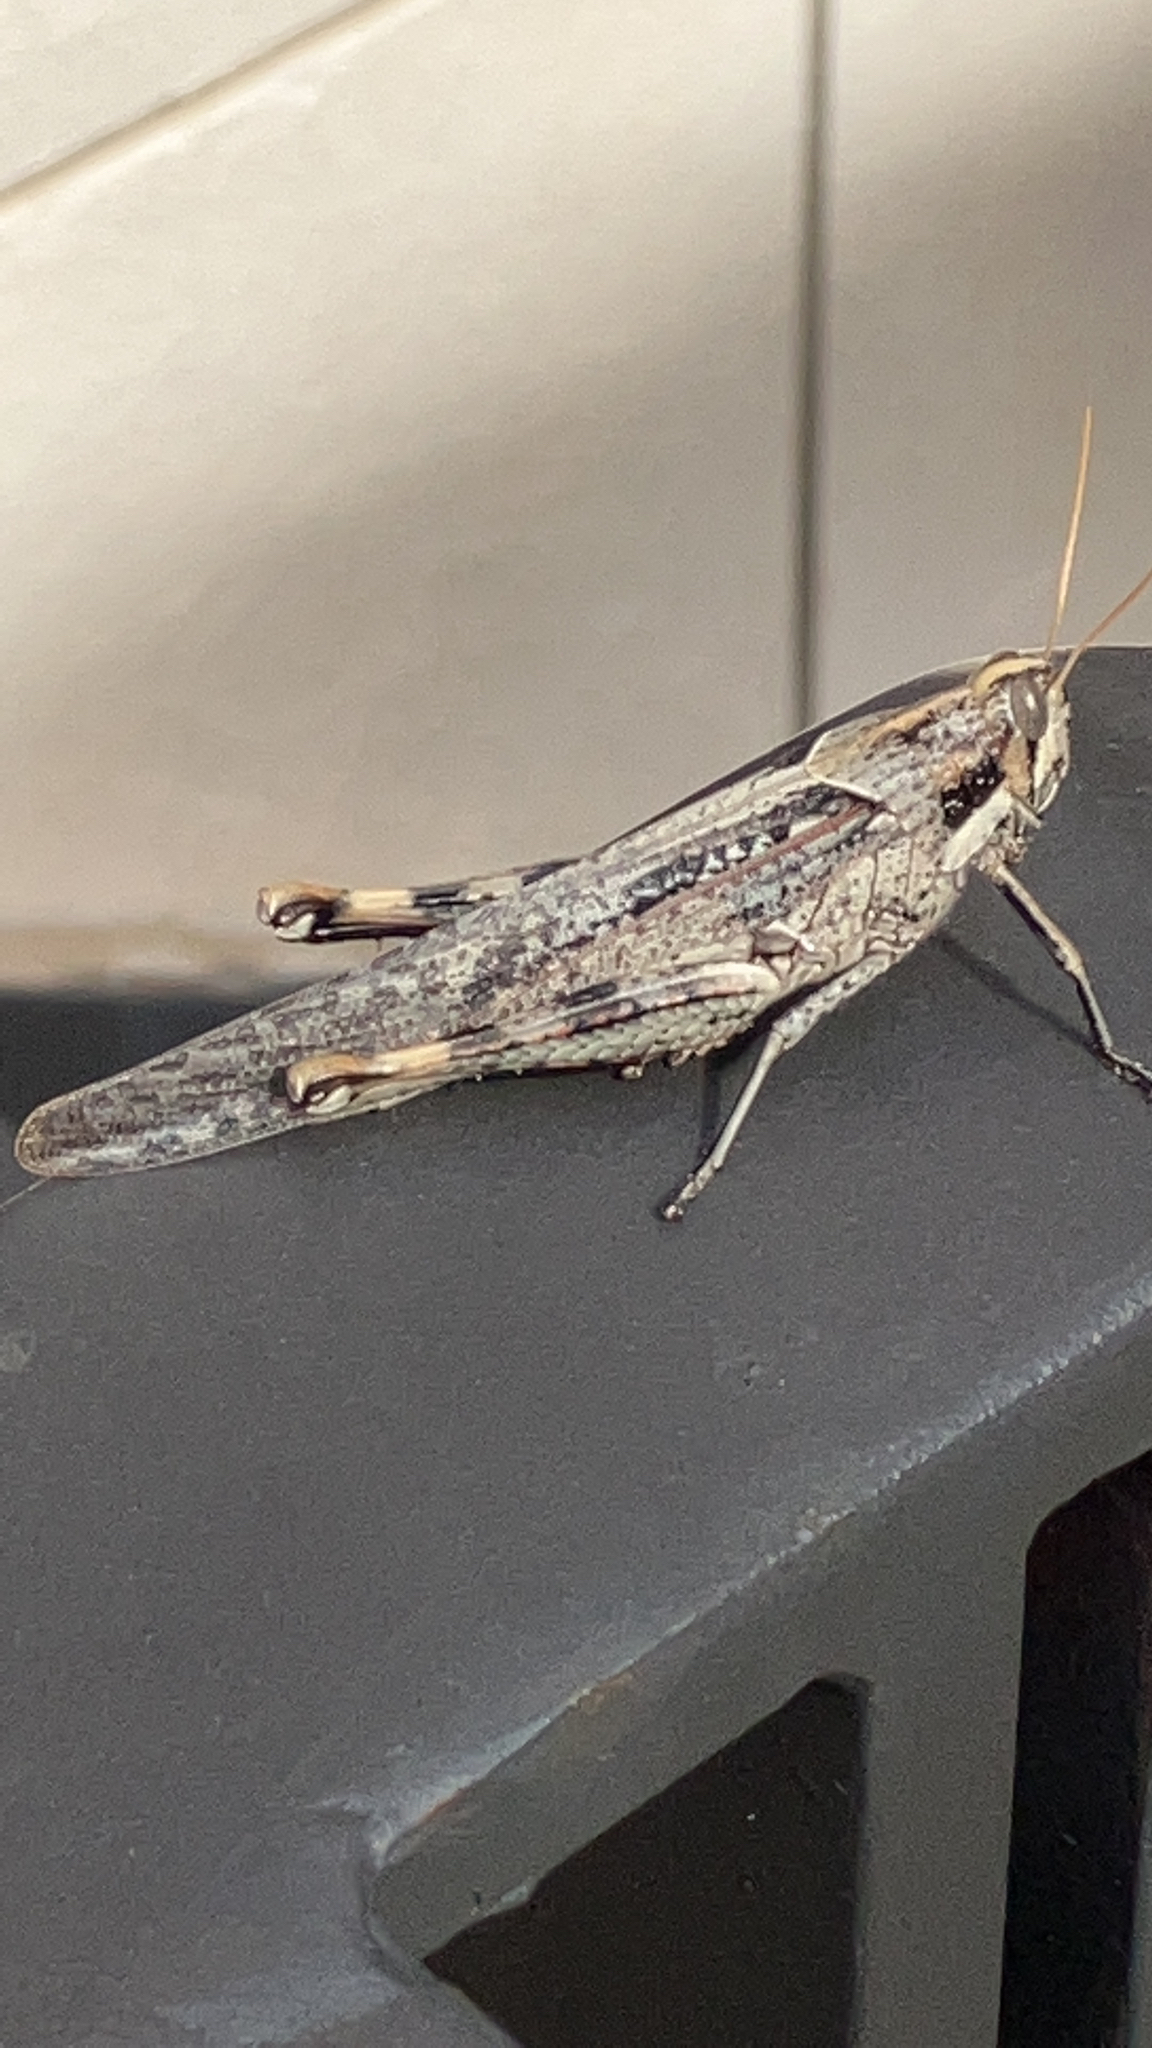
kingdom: Animalia
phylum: Arthropoda
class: Insecta
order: Orthoptera
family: Acrididae
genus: Schistocerca
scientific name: Schistocerca nitens
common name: Vagrant grasshopper
